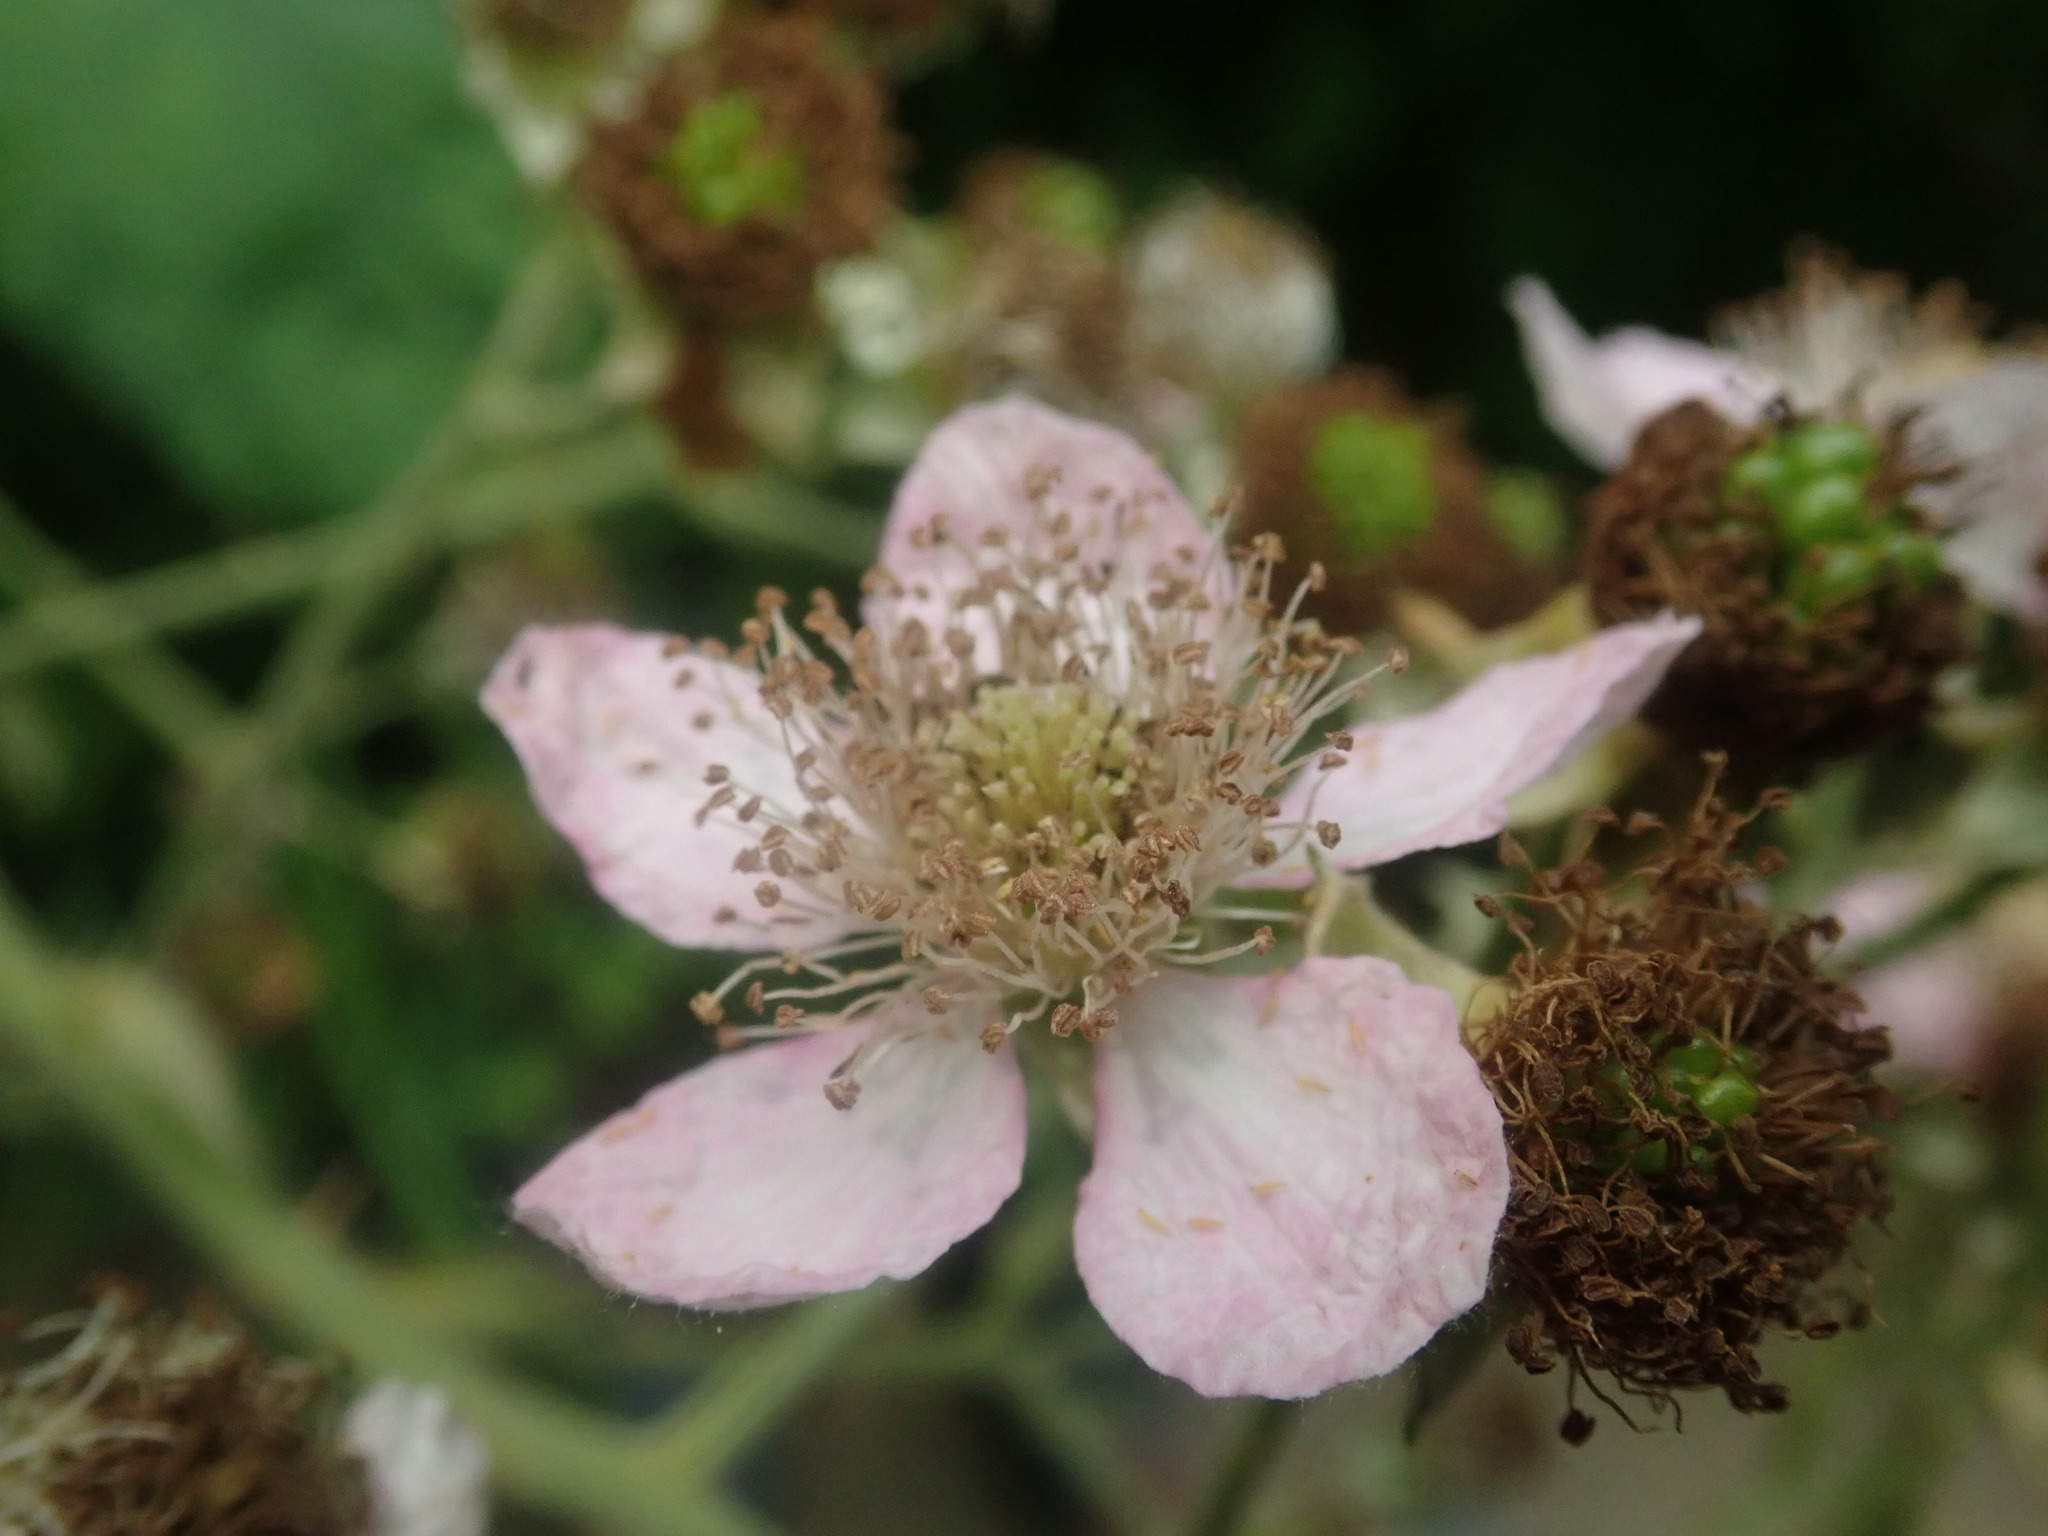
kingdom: Plantae
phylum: Tracheophyta
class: Magnoliopsida
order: Rosales
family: Rosaceae
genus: Rubus
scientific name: Rubus armeniacus
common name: Himalayan blackberry
